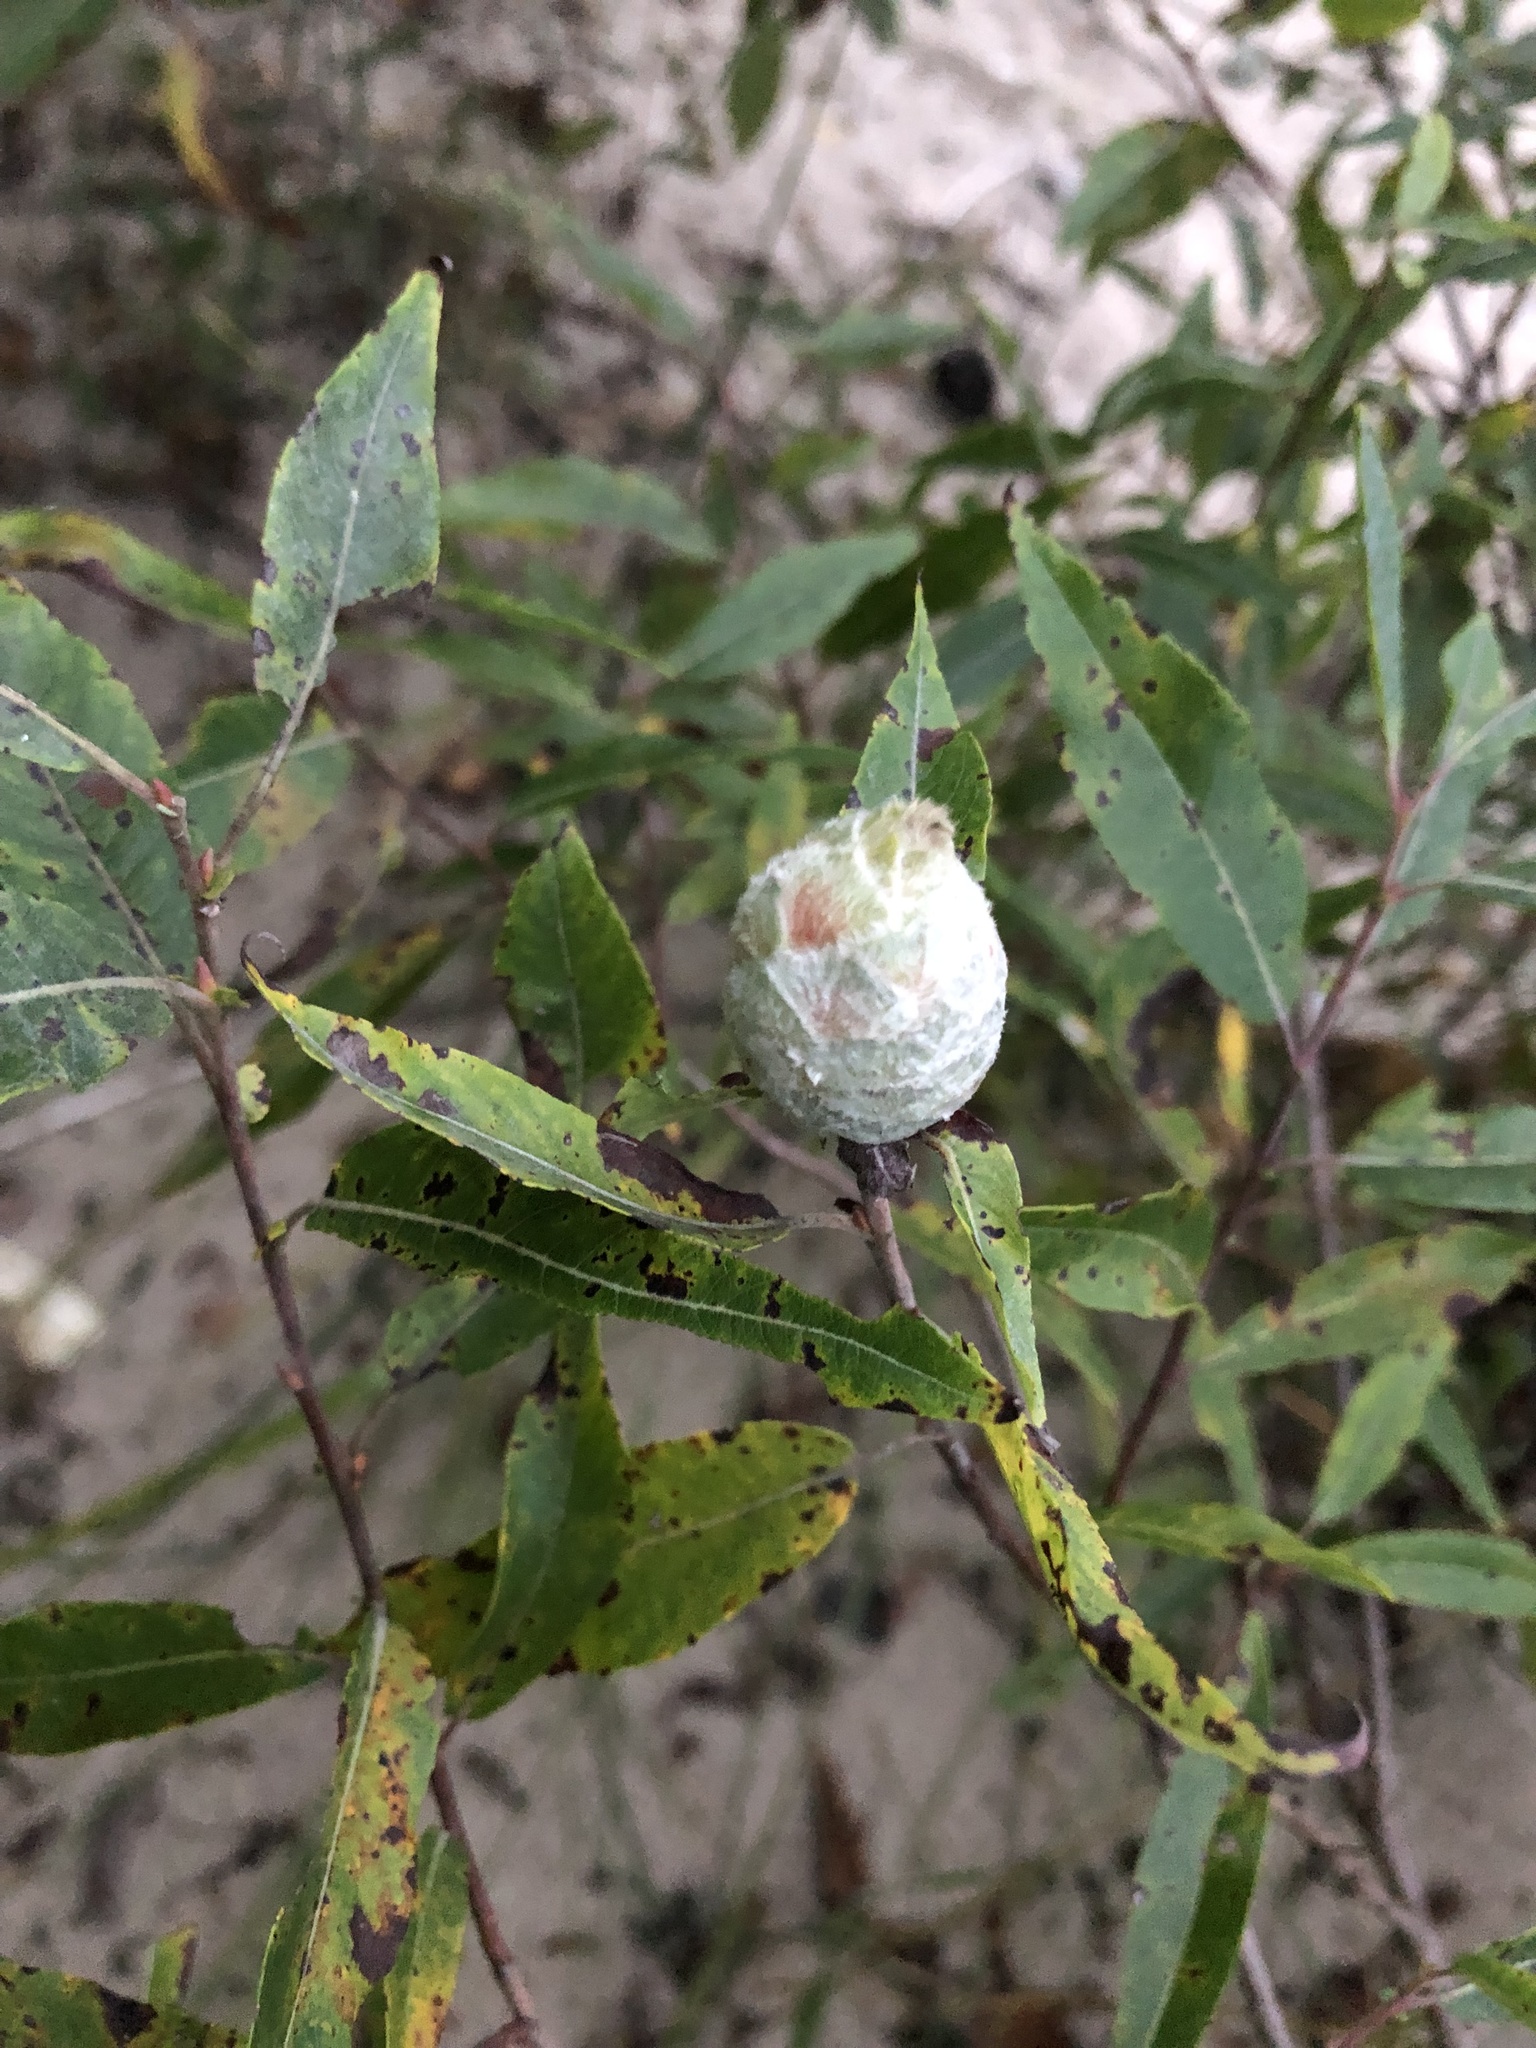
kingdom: Animalia
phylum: Arthropoda
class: Insecta
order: Diptera
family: Cecidomyiidae
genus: Rabdophaga
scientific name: Rabdophaga strobiloides
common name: Willow pinecone gall midge
